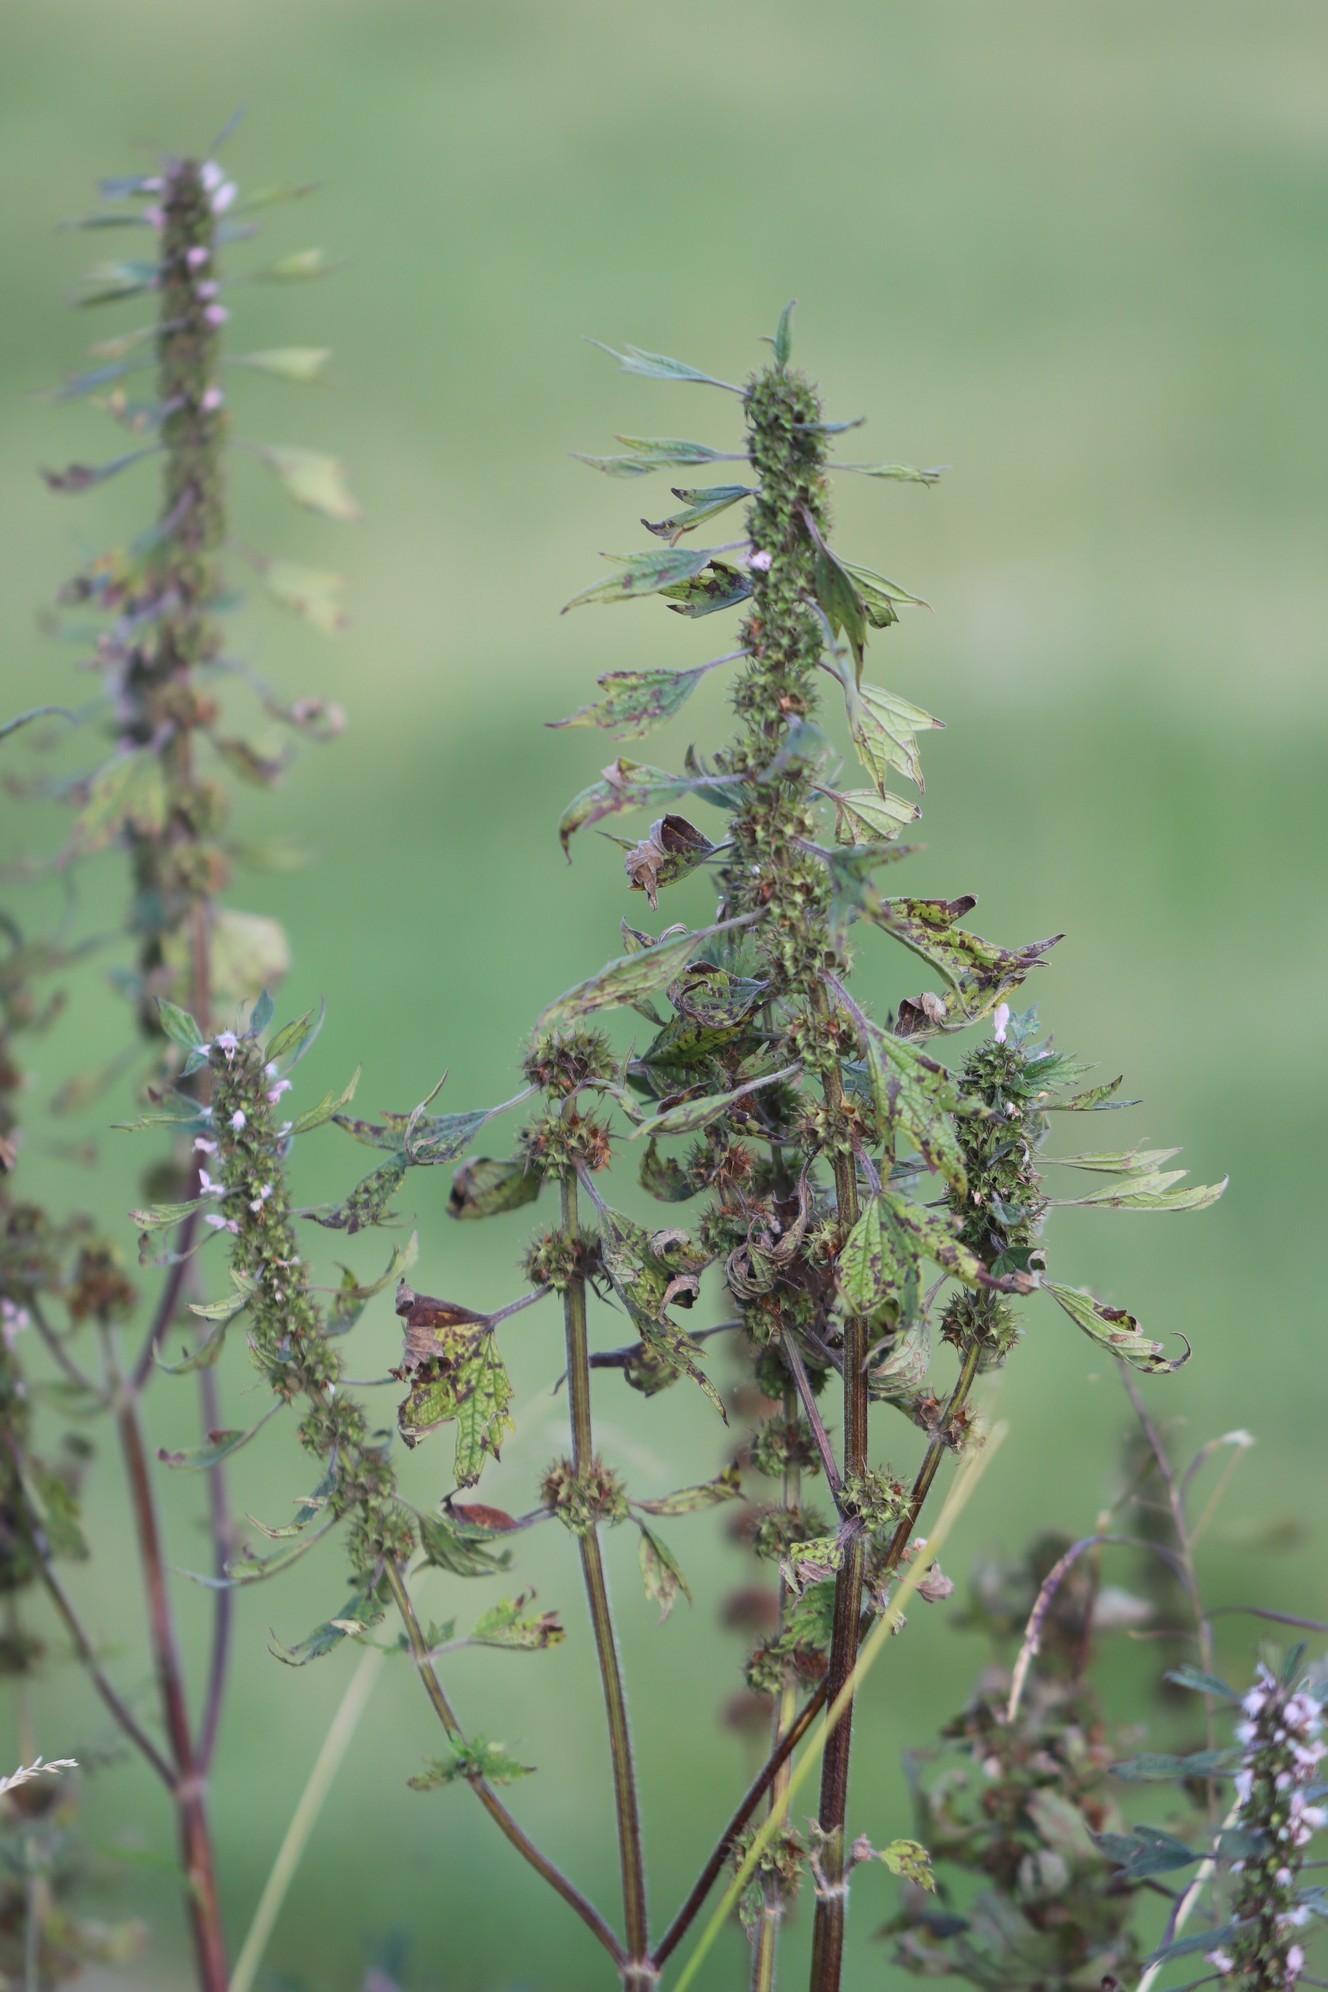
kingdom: Plantae
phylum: Tracheophyta
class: Magnoliopsida
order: Lamiales
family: Lamiaceae
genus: Leonurus
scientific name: Leonurus quinquelobatus
